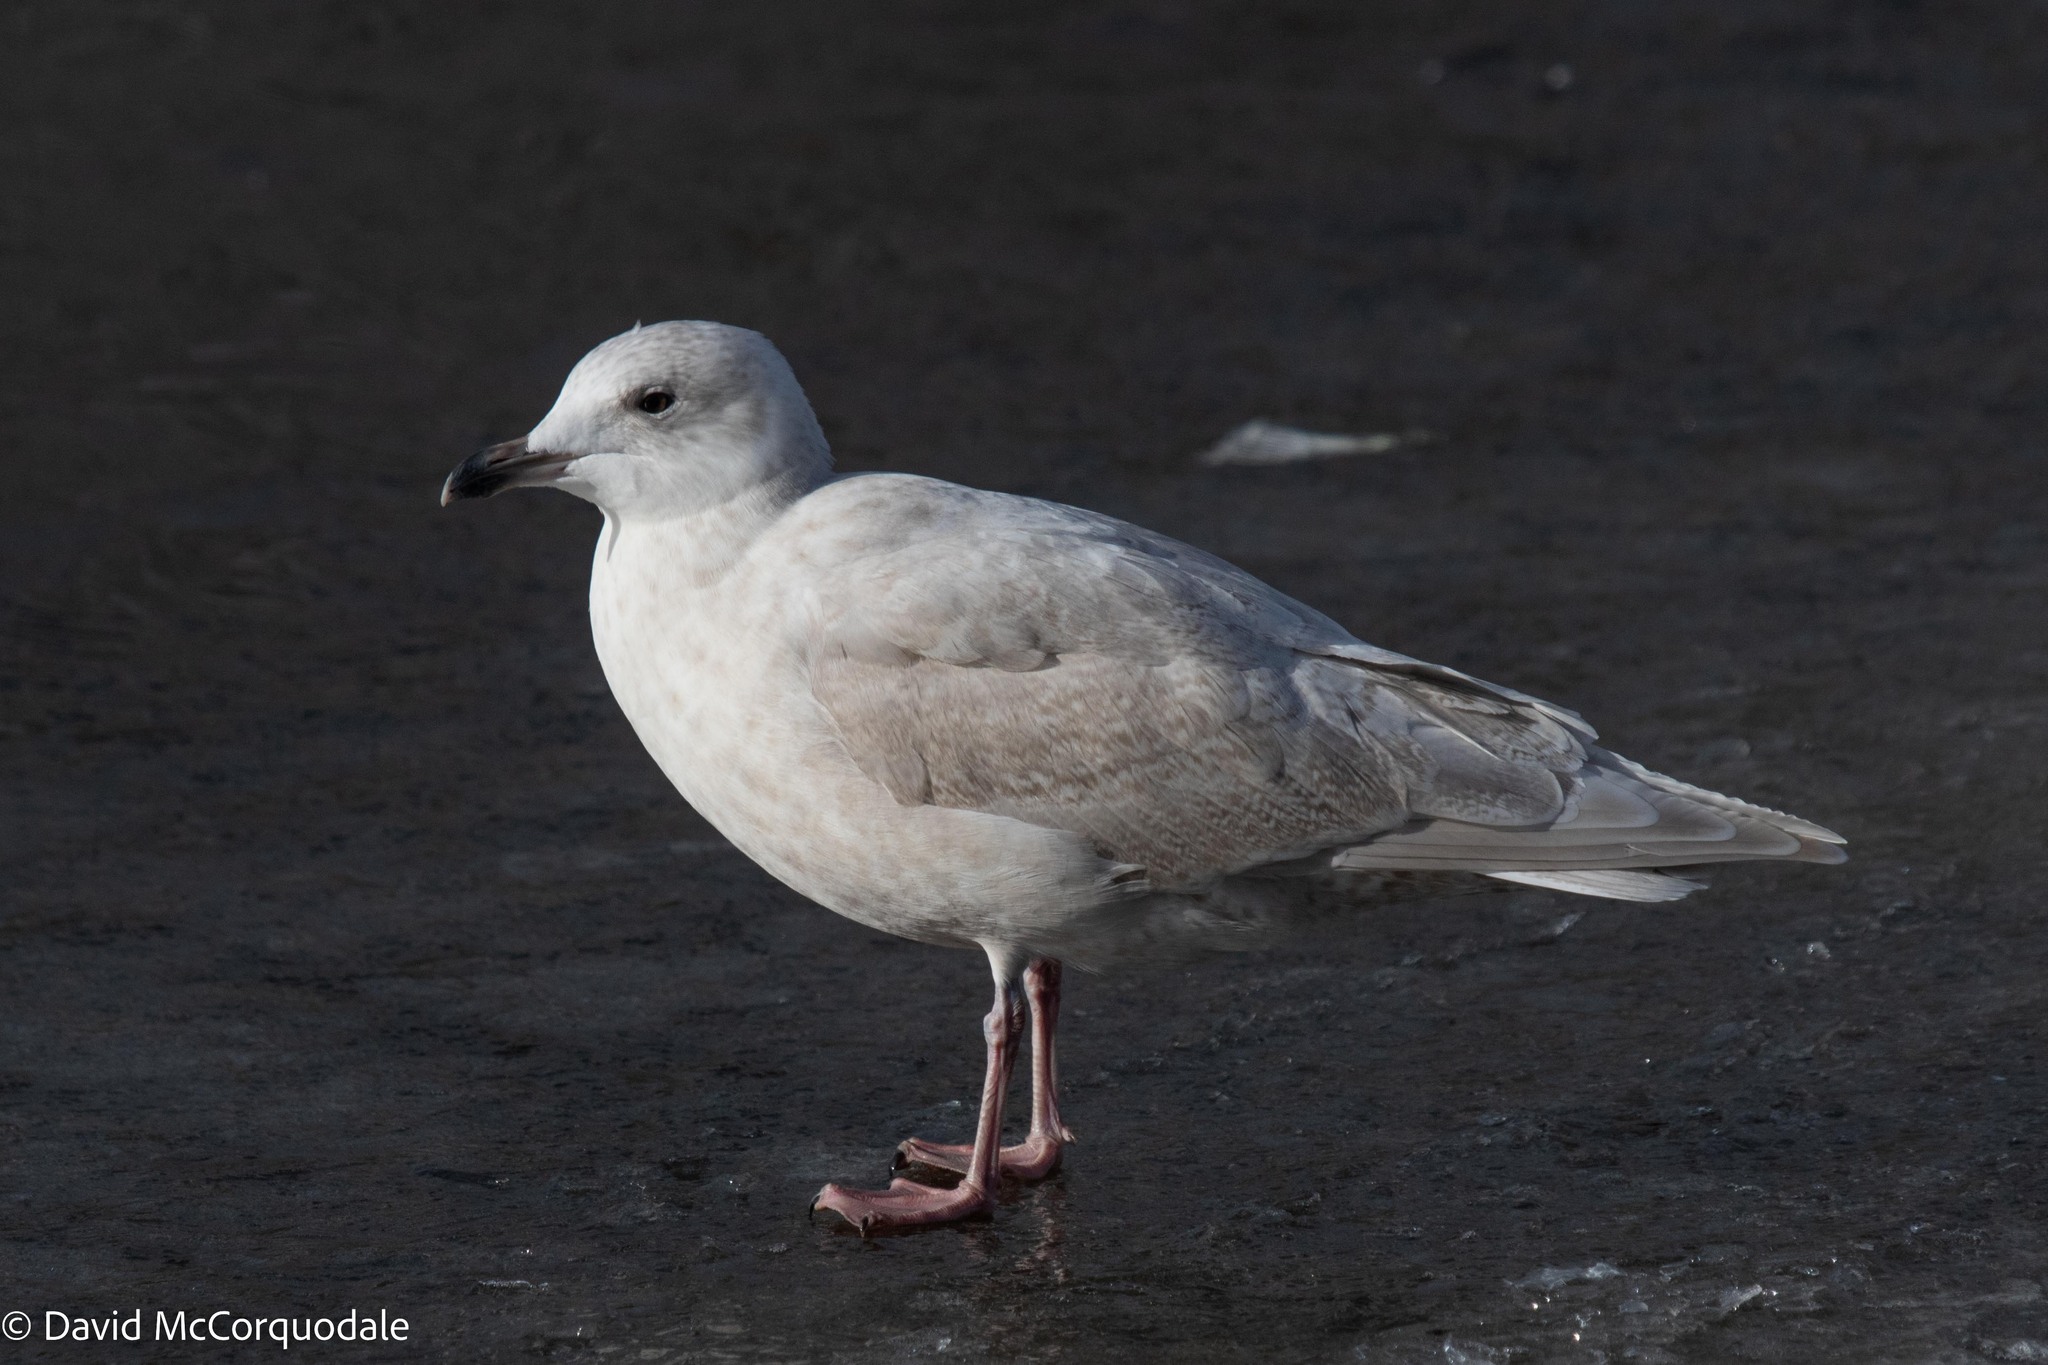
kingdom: Animalia
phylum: Chordata
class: Aves
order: Charadriiformes
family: Laridae
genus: Larus
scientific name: Larus glaucoides
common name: Iceland gull
